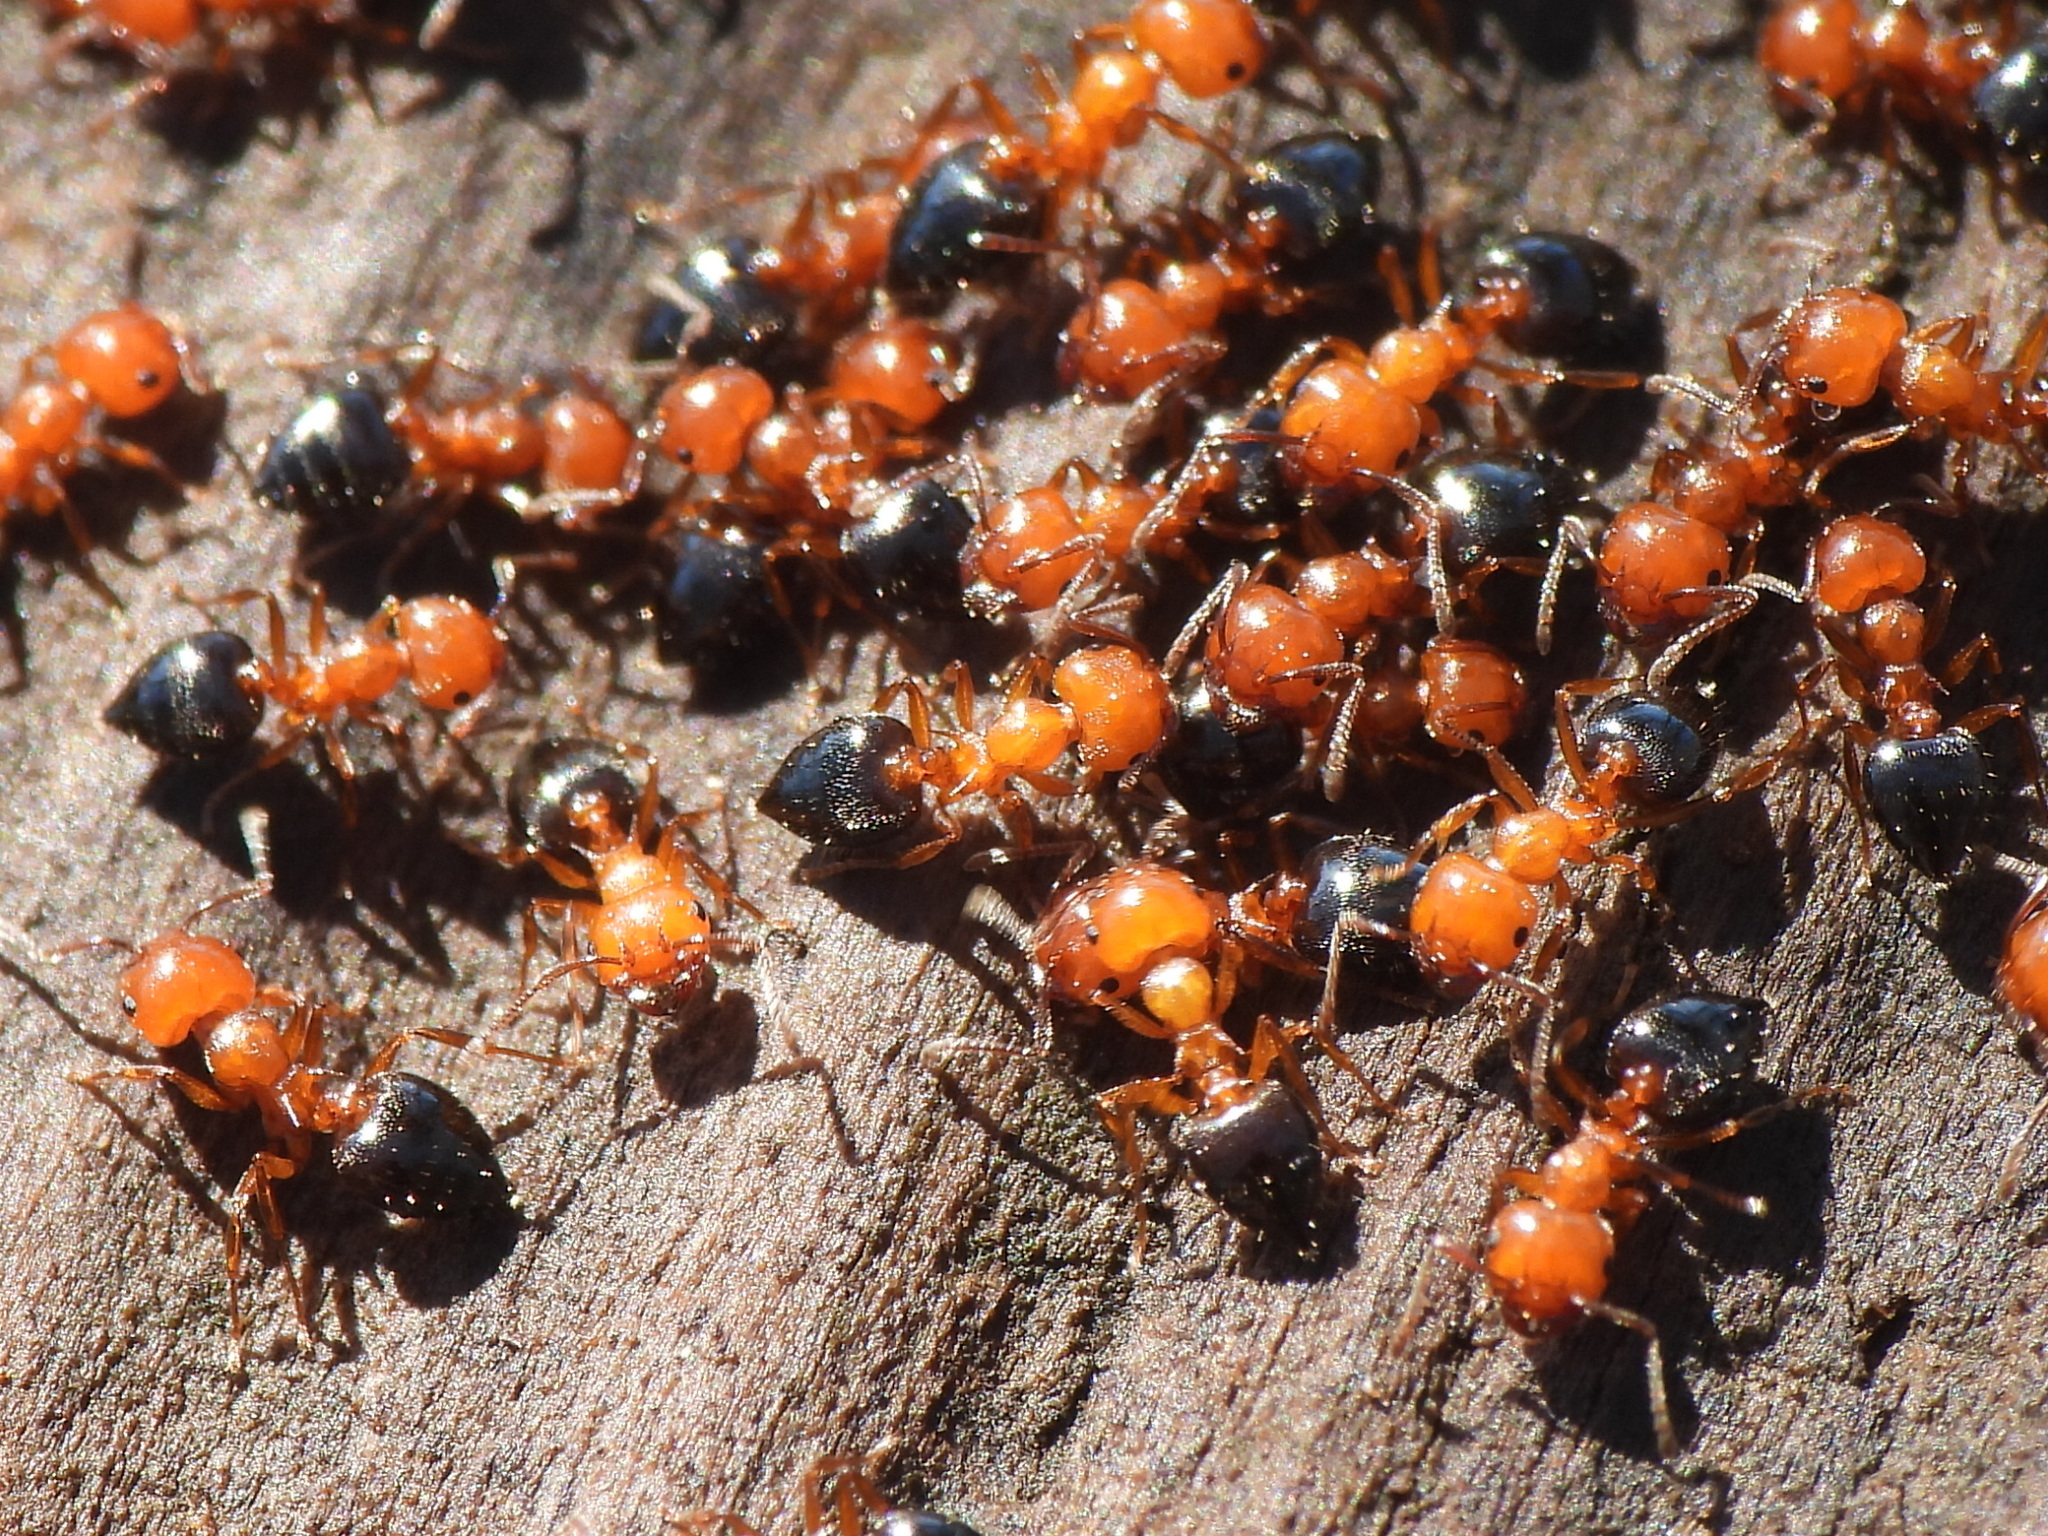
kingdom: Animalia
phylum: Arthropoda
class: Insecta
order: Hymenoptera
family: Formicidae
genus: Crematogaster
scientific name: Crematogaster laeviuscula
